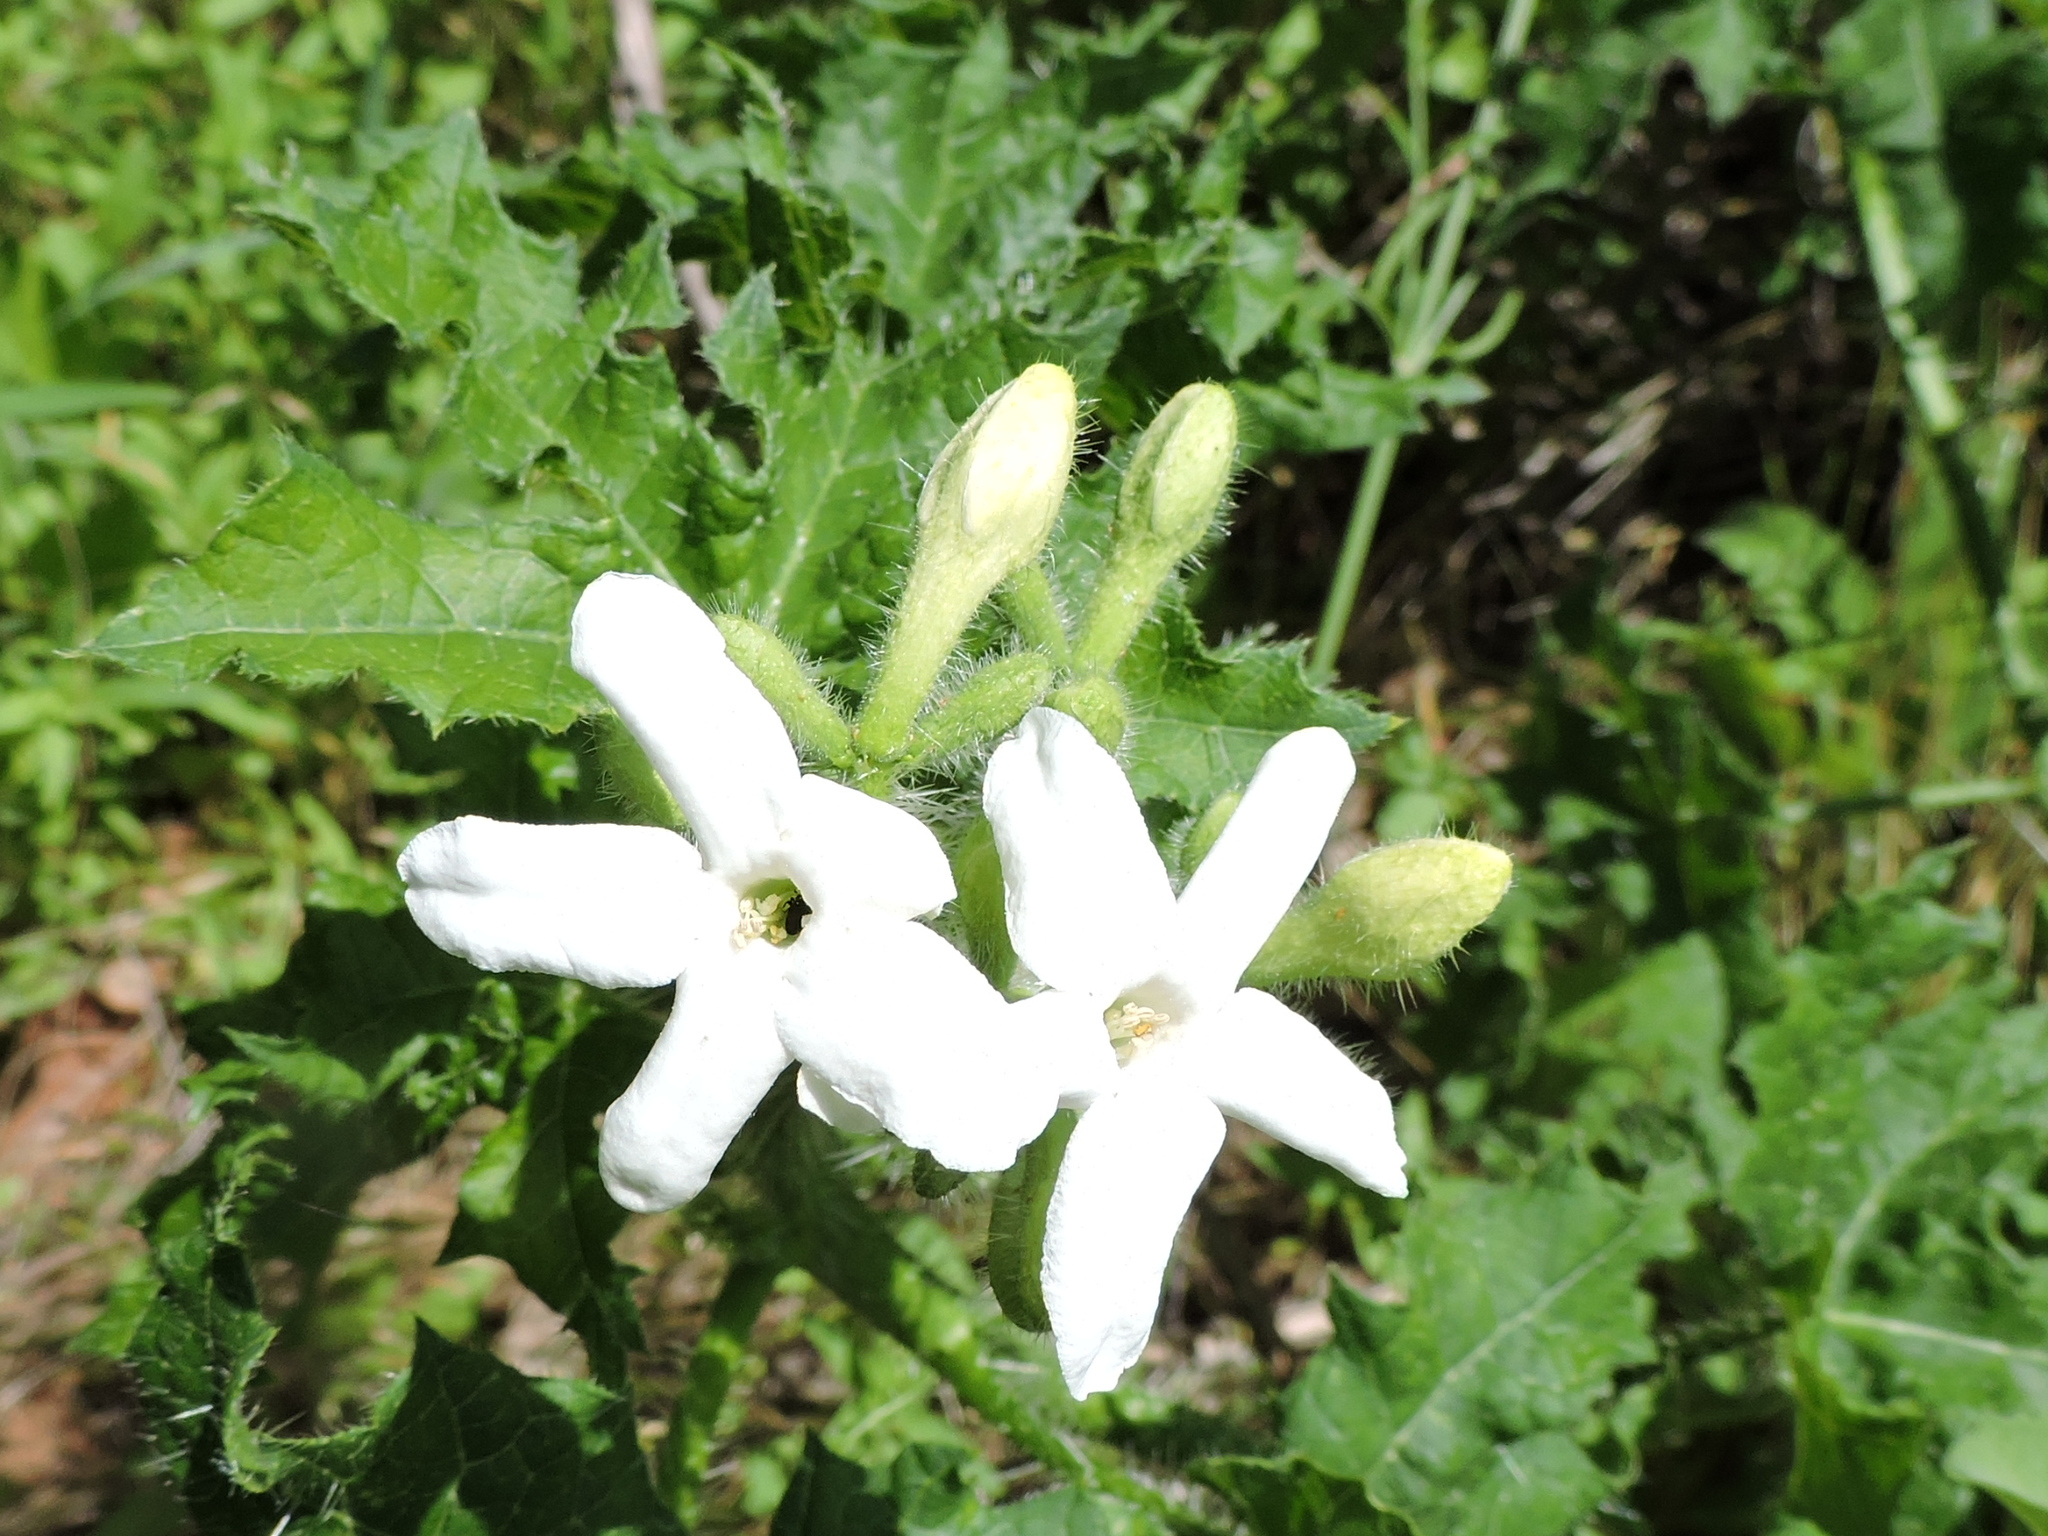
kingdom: Plantae
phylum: Tracheophyta
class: Magnoliopsida
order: Malpighiales
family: Euphorbiaceae
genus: Cnidoscolus
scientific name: Cnidoscolus texanus
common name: Texas bull-nettle
